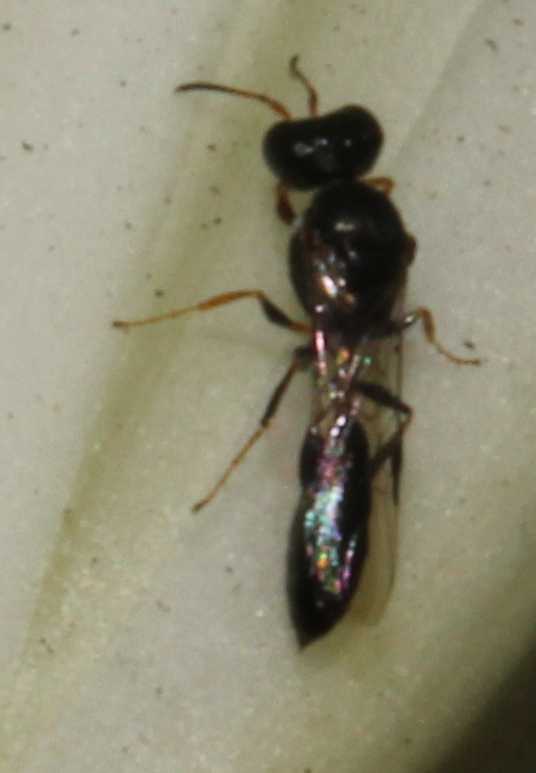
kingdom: Animalia
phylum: Arthropoda
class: Insecta
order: Hymenoptera
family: Pemphredonidae
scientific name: Pemphredonidae
